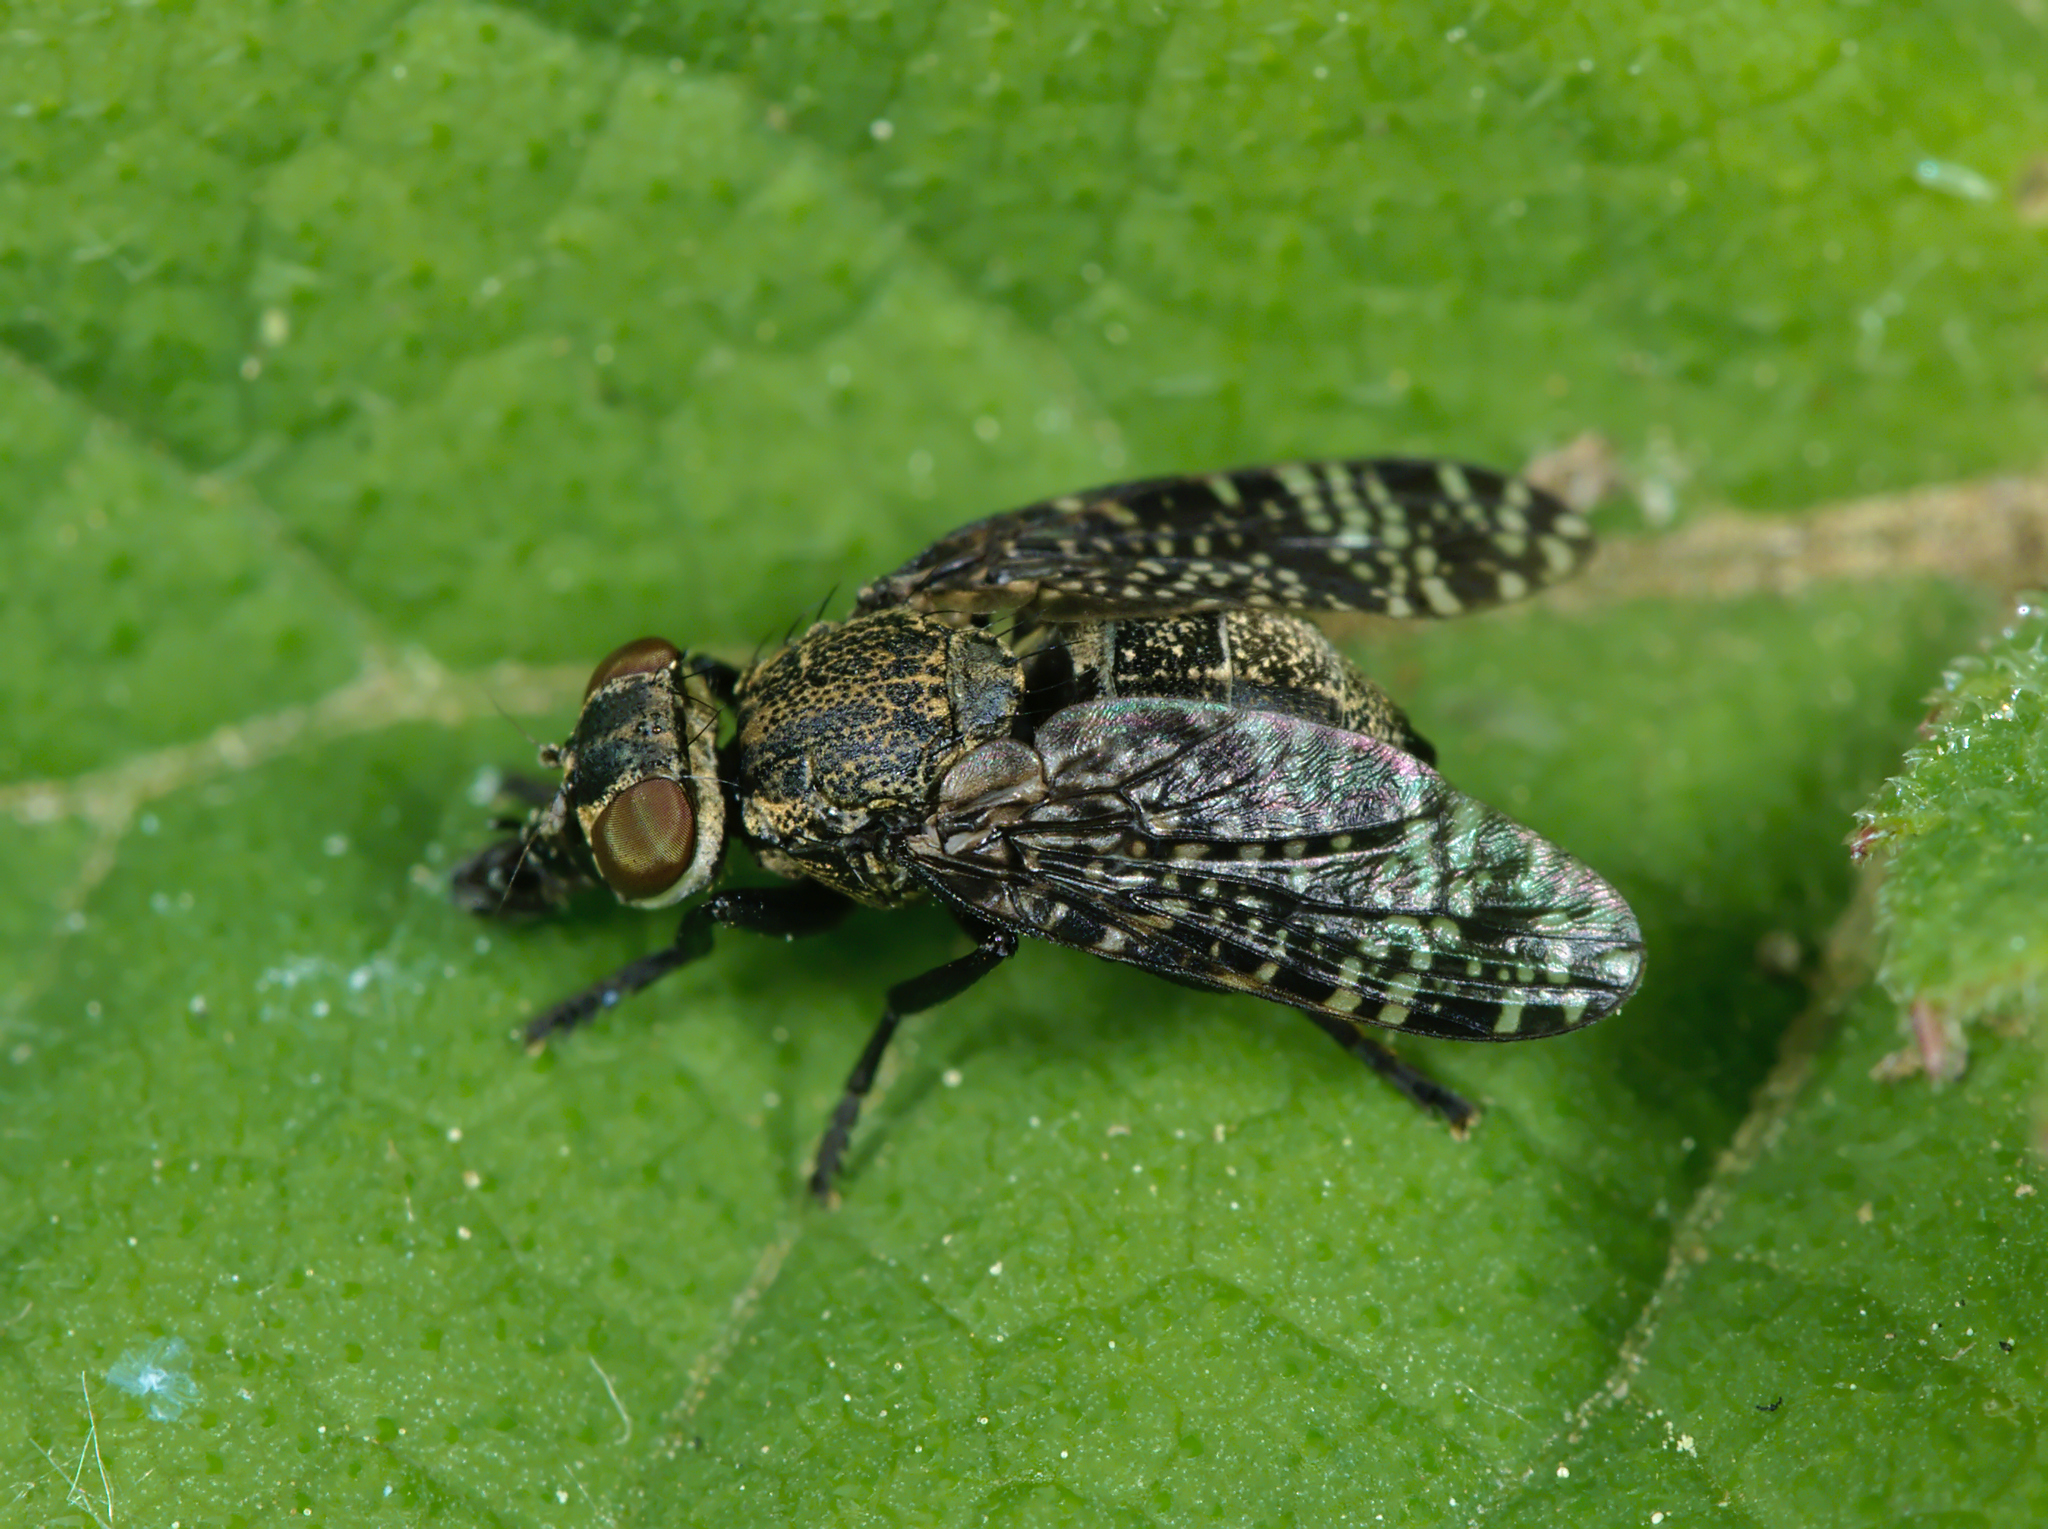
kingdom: Animalia
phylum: Arthropoda
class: Insecta
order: Diptera
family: Platystomatidae
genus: Platystoma
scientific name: Platystoma seminationis
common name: Fly
